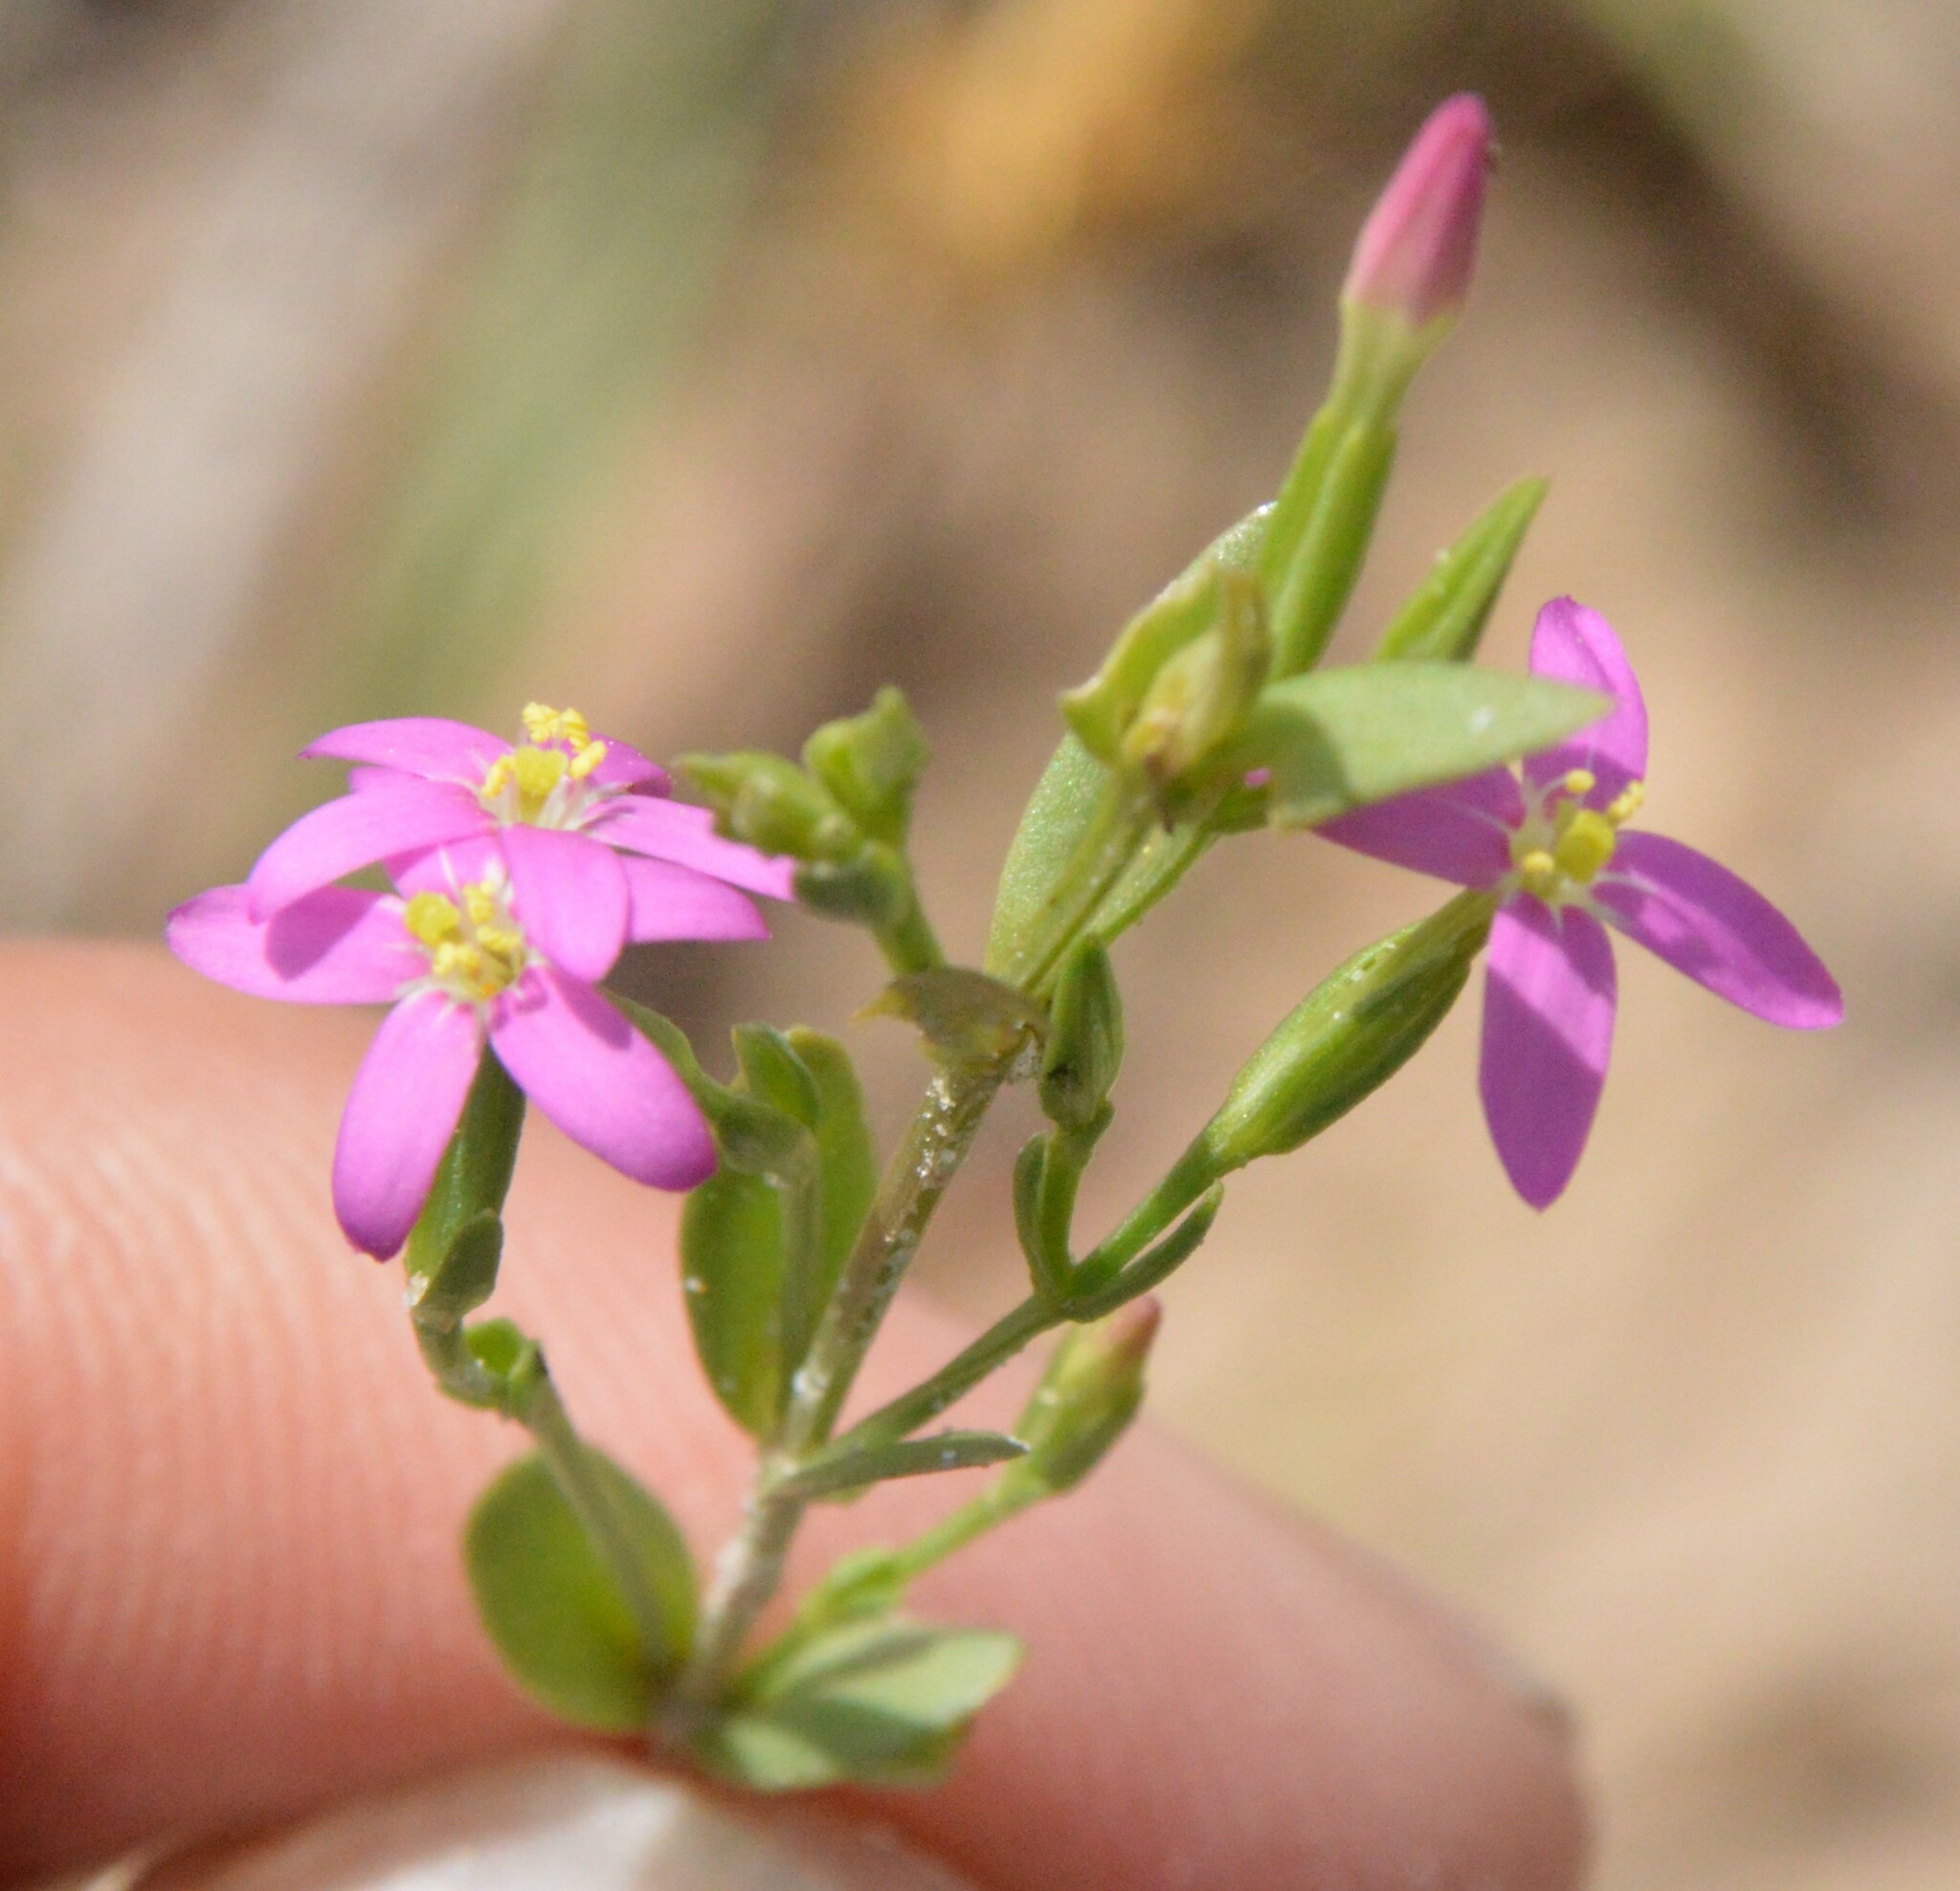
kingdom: Plantae
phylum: Tracheophyta
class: Magnoliopsida
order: Gentianales
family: Gentianaceae
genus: Centaurium
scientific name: Centaurium pulchellum
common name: Lesser centaury
